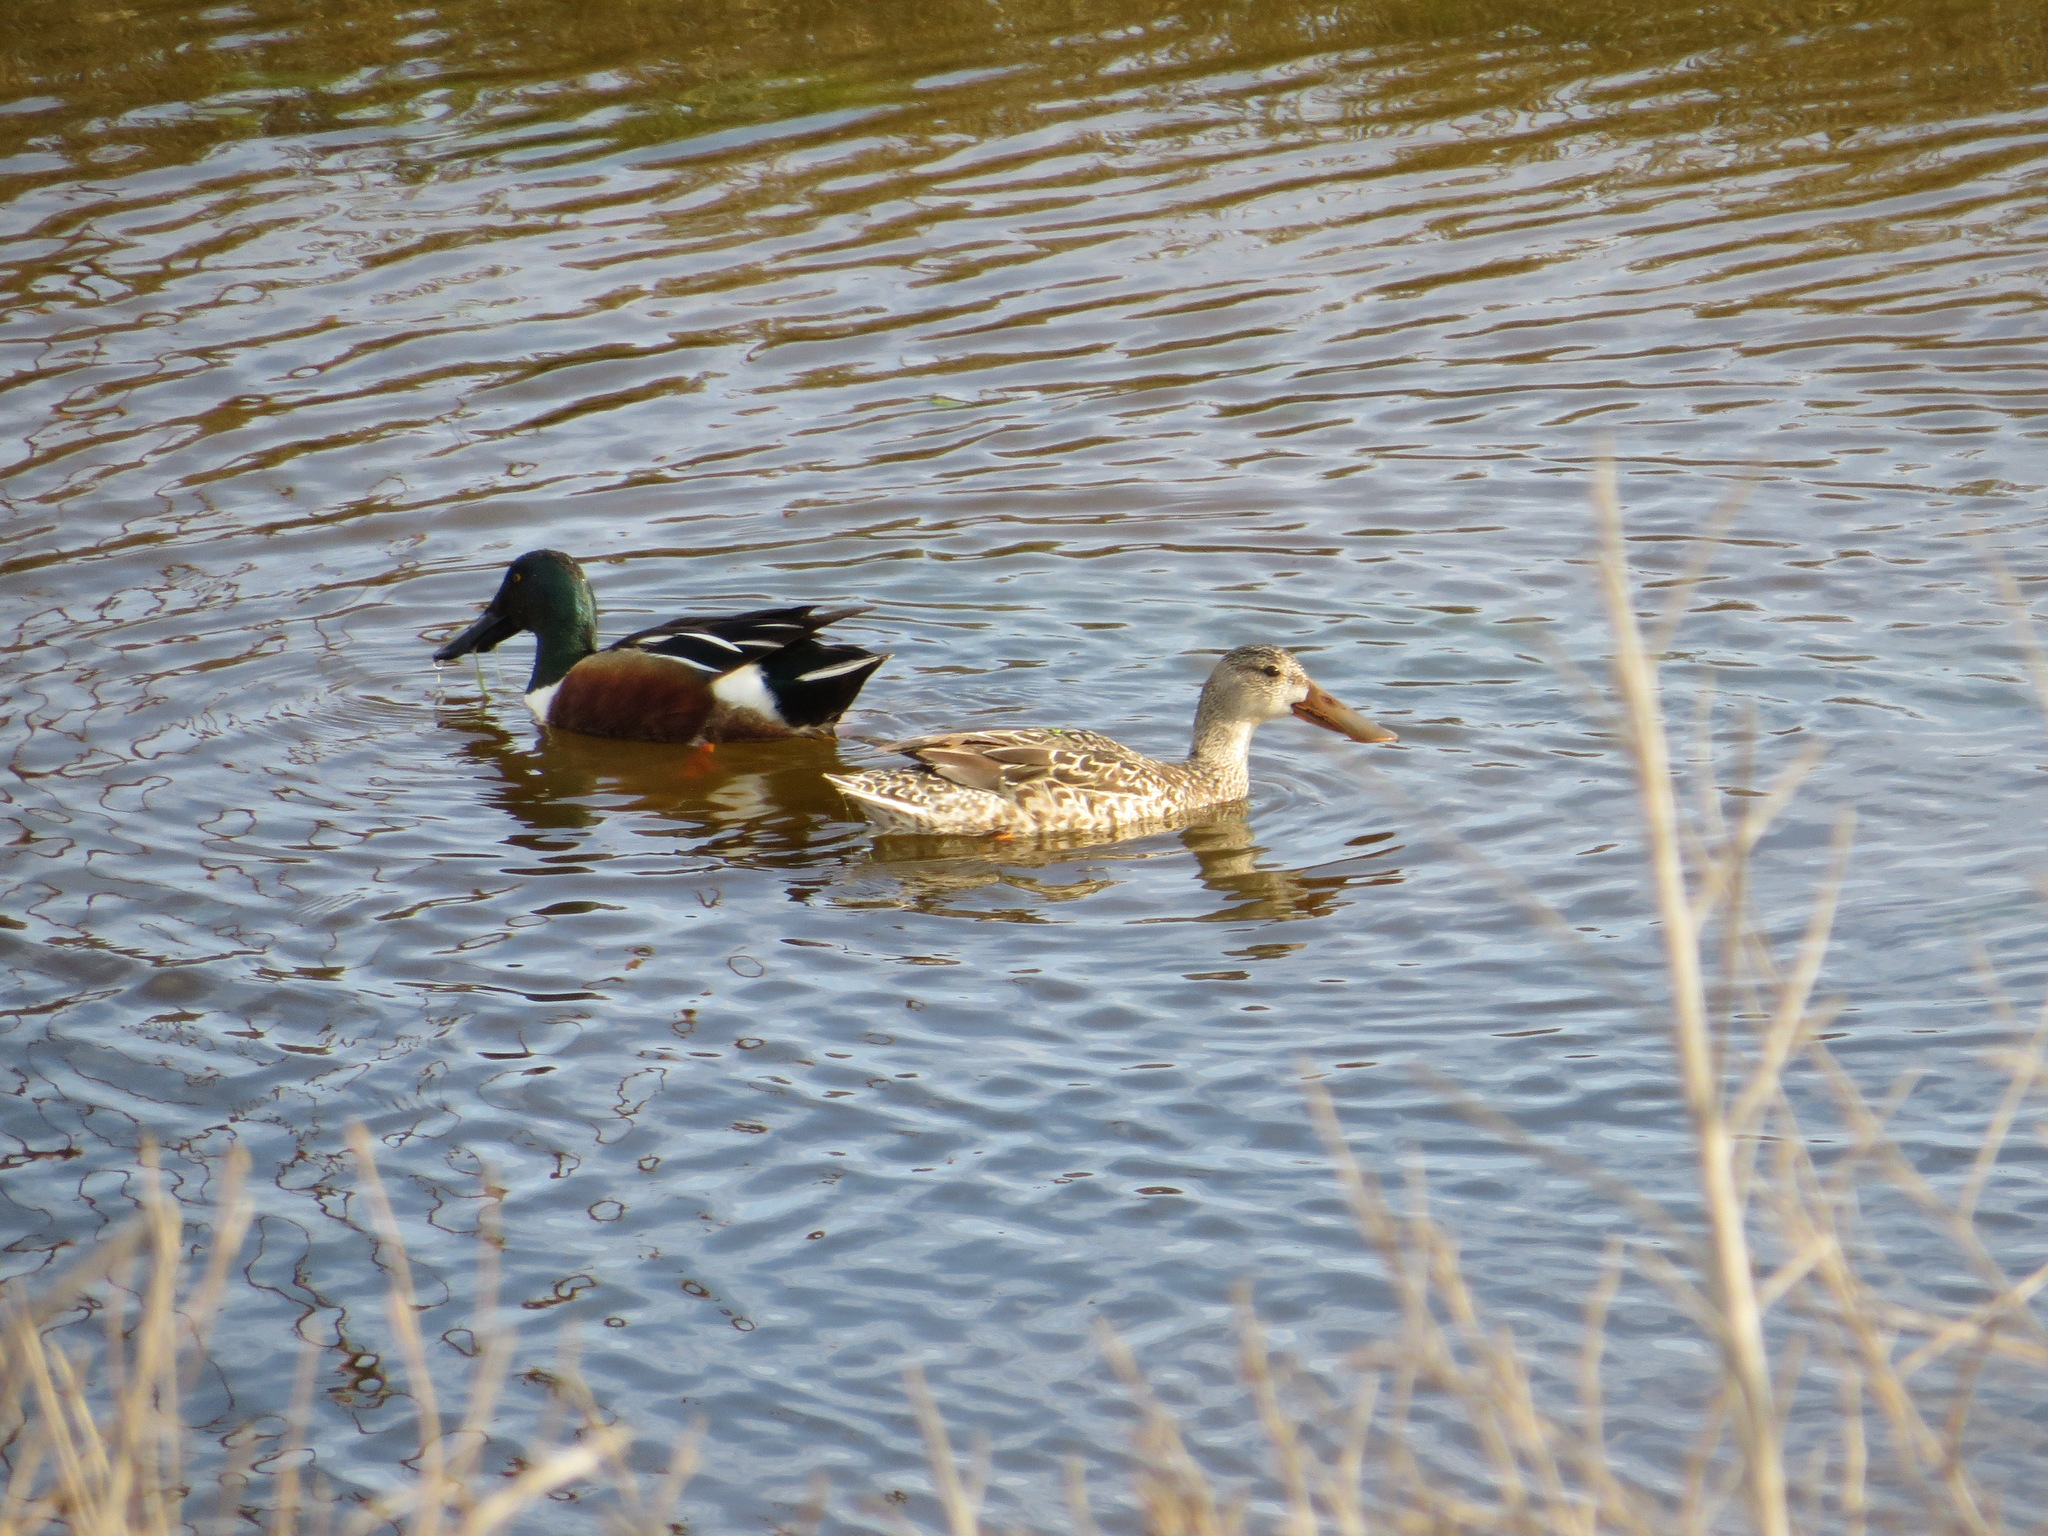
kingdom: Animalia
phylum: Chordata
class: Aves
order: Anseriformes
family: Anatidae
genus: Spatula
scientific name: Spatula clypeata
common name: Northern shoveler
